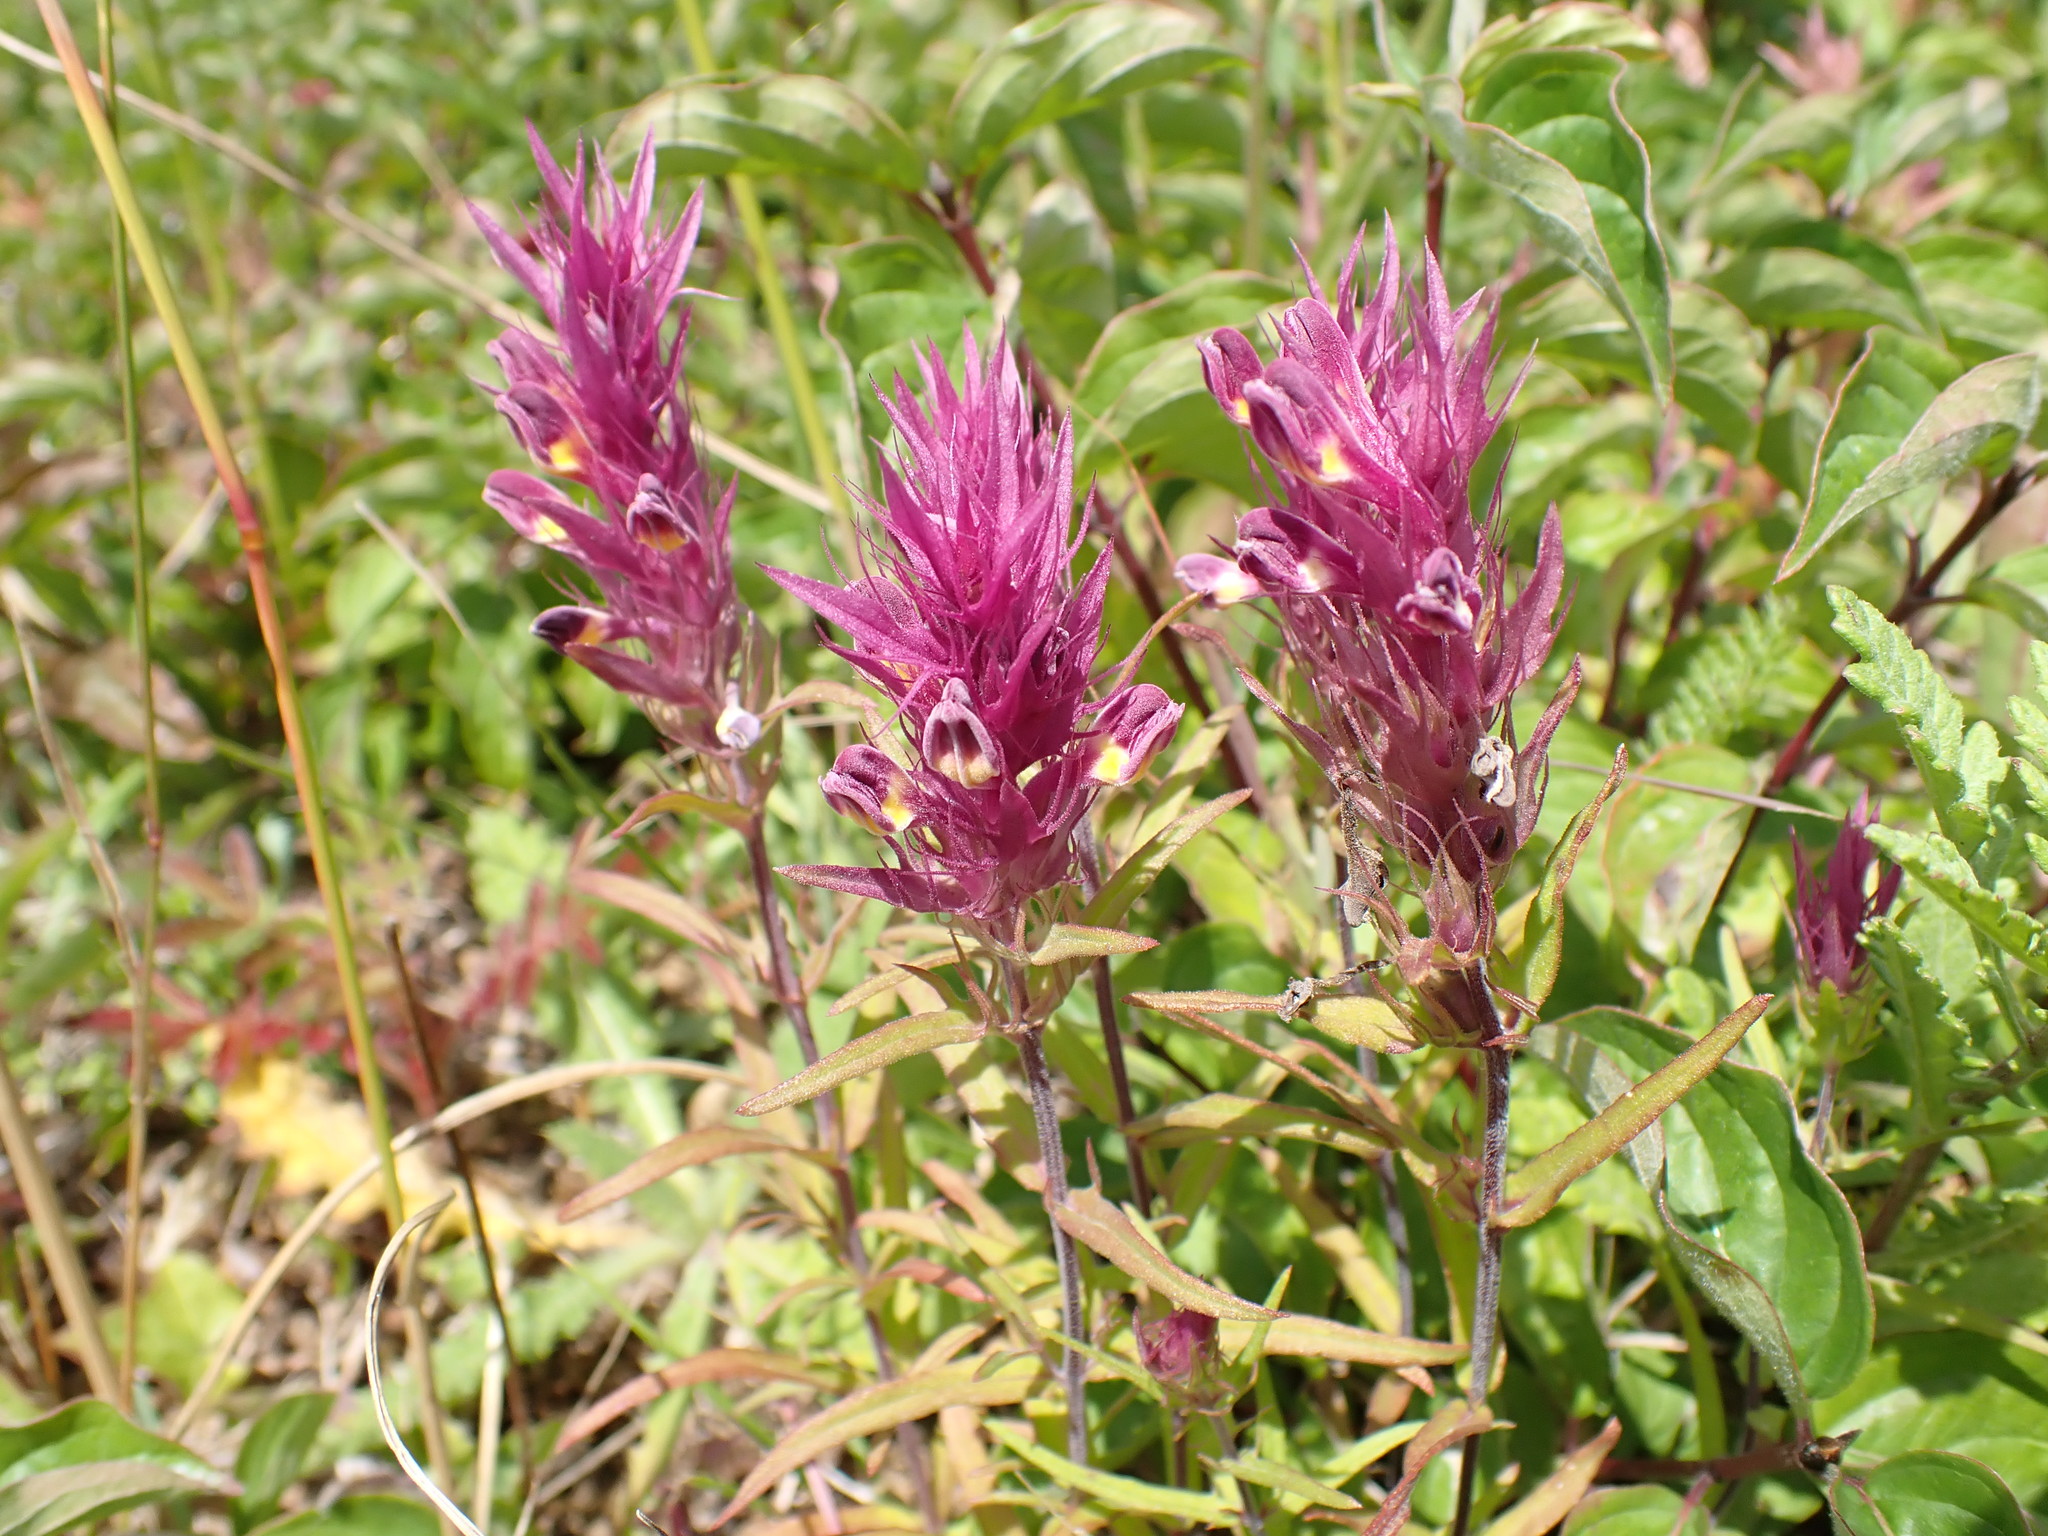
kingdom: Plantae
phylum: Tracheophyta
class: Magnoliopsida
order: Lamiales
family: Orobanchaceae
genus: Melampyrum
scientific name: Melampyrum arvense
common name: Field cow-wheat
